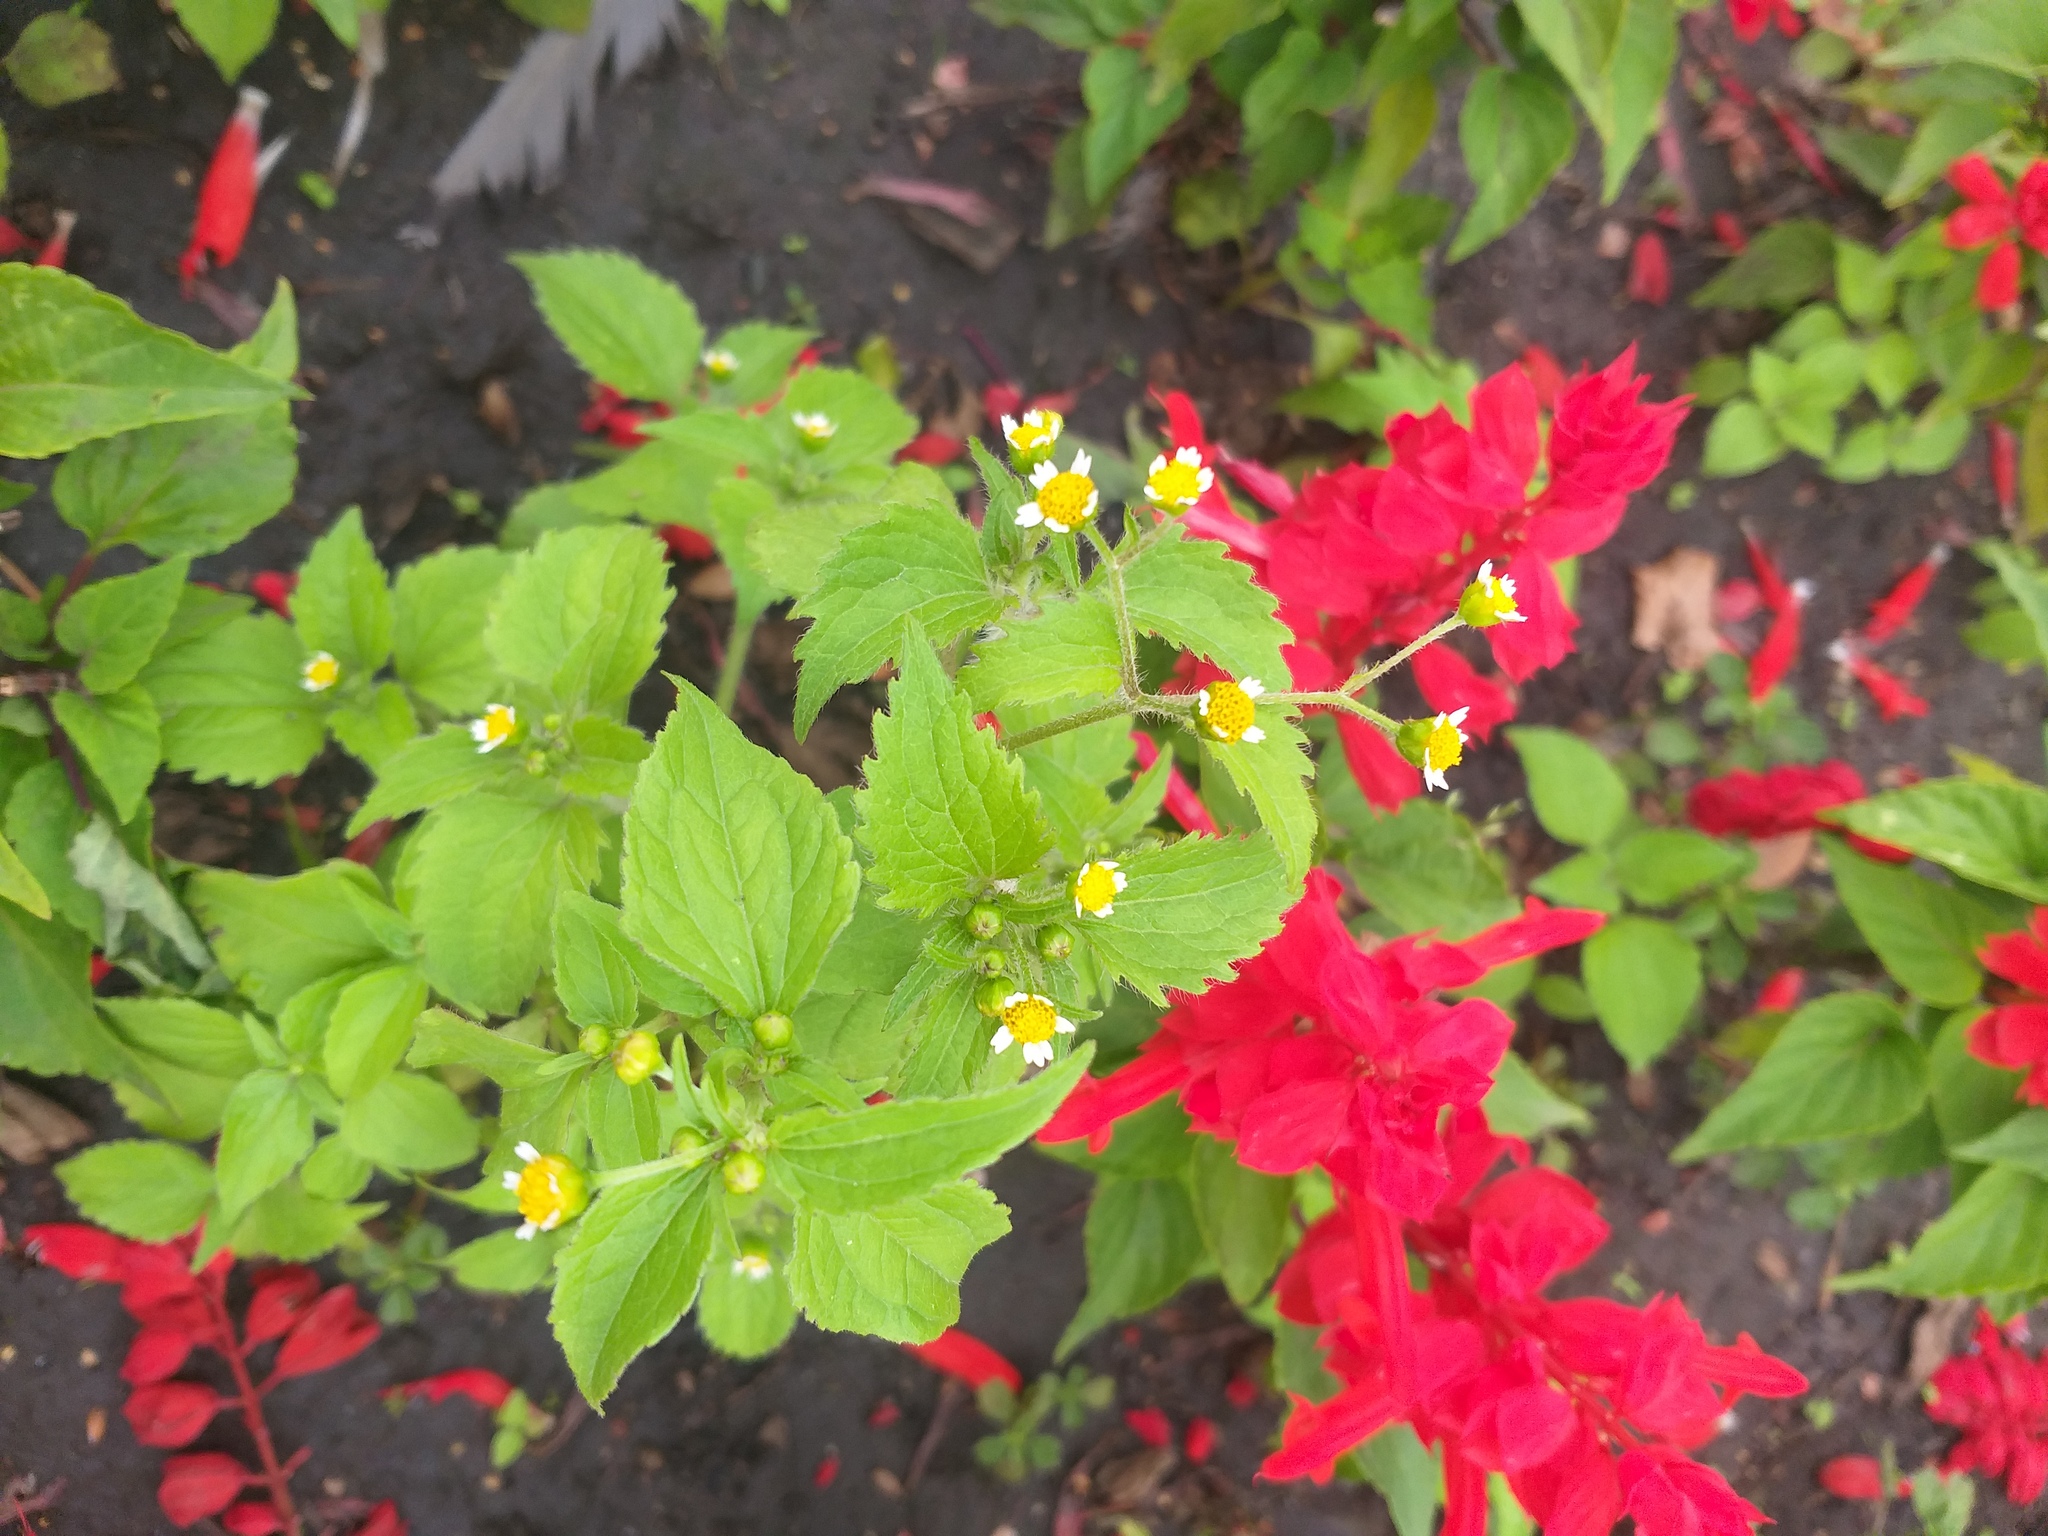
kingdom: Plantae
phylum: Tracheophyta
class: Magnoliopsida
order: Asterales
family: Asteraceae
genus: Galinsoga
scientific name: Galinsoga quadriradiata
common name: Shaggy soldier
